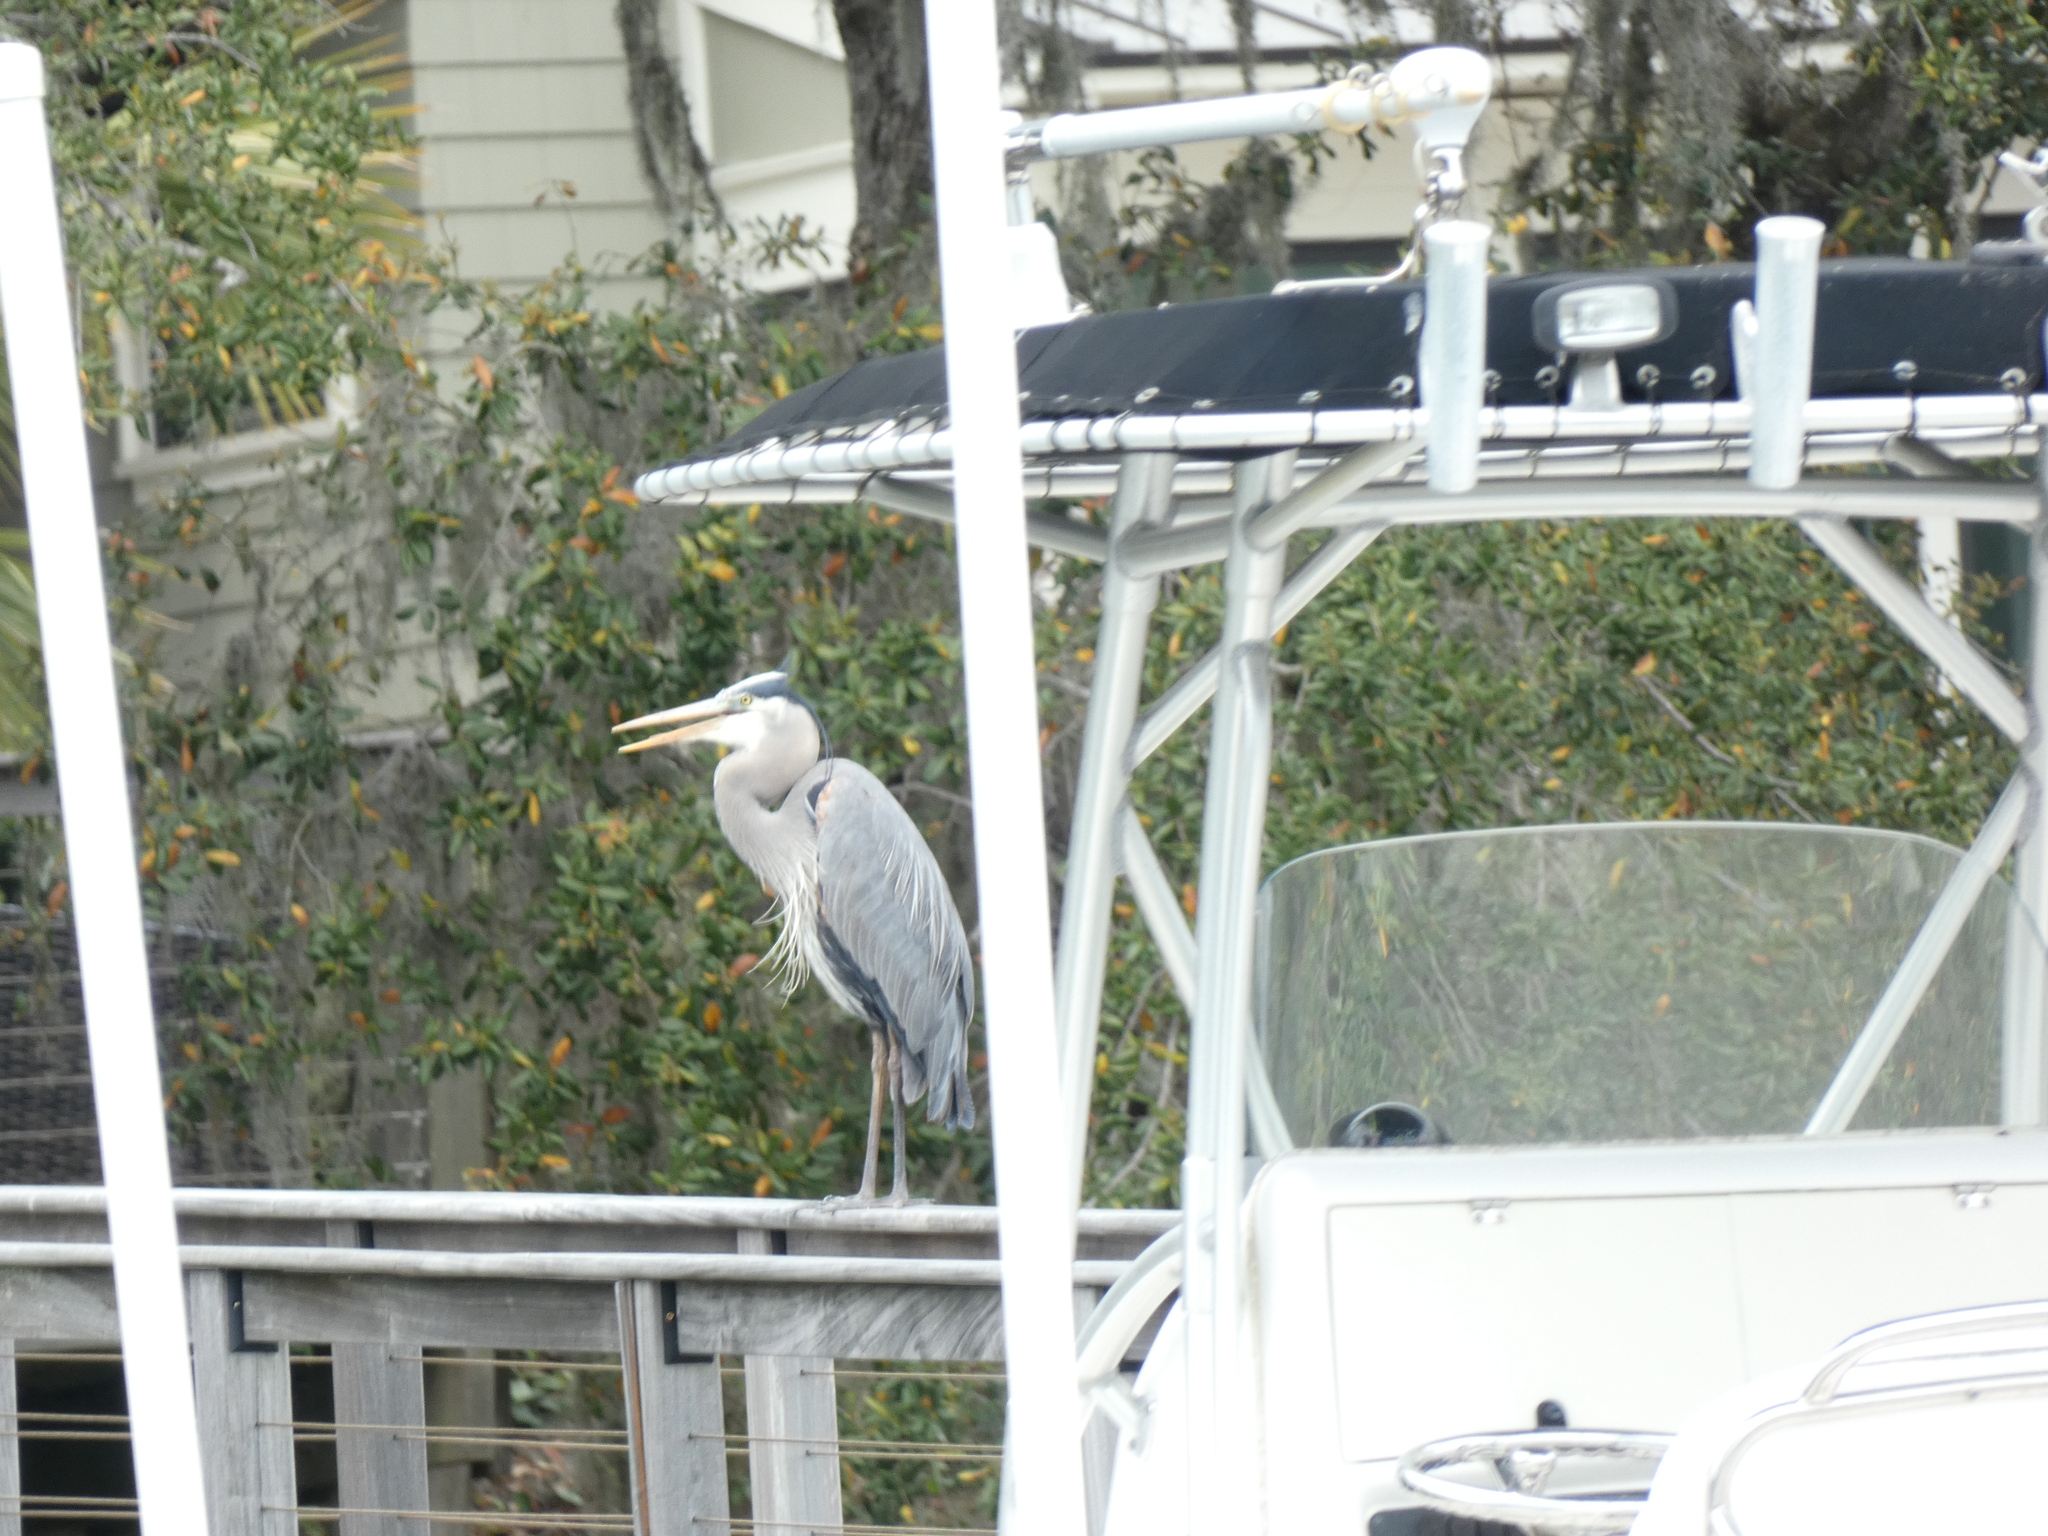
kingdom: Animalia
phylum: Chordata
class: Aves
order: Pelecaniformes
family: Ardeidae
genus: Ardea
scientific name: Ardea herodias
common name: Great blue heron
